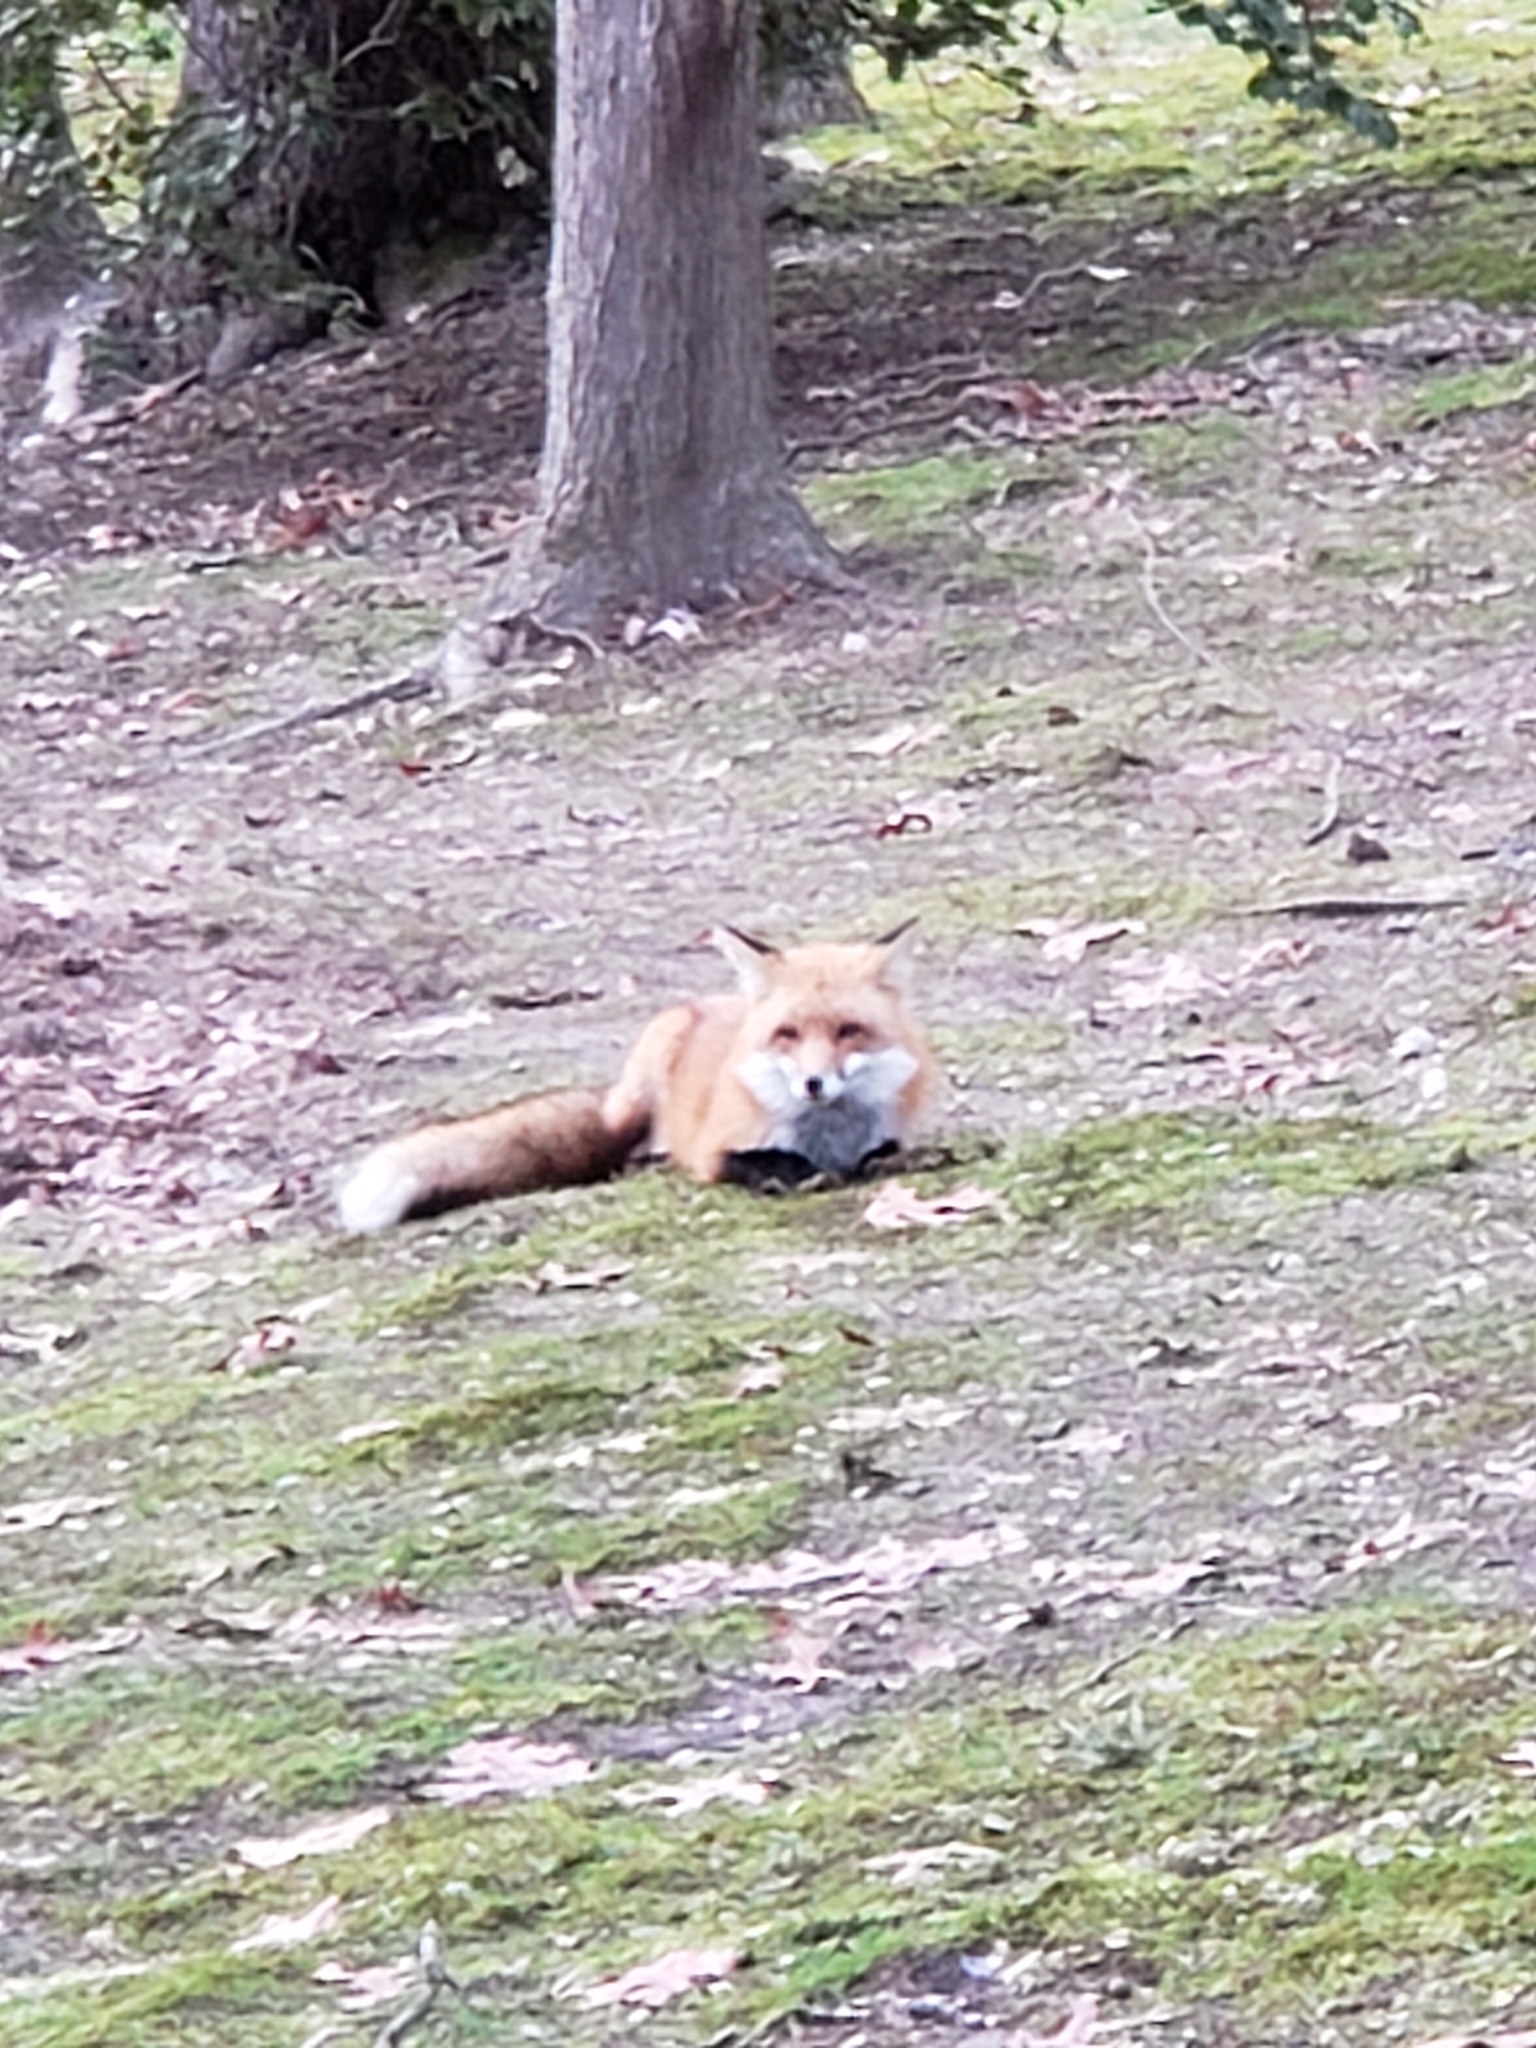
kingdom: Animalia
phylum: Chordata
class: Mammalia
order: Carnivora
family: Canidae
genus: Vulpes
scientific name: Vulpes vulpes
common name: Red fox
